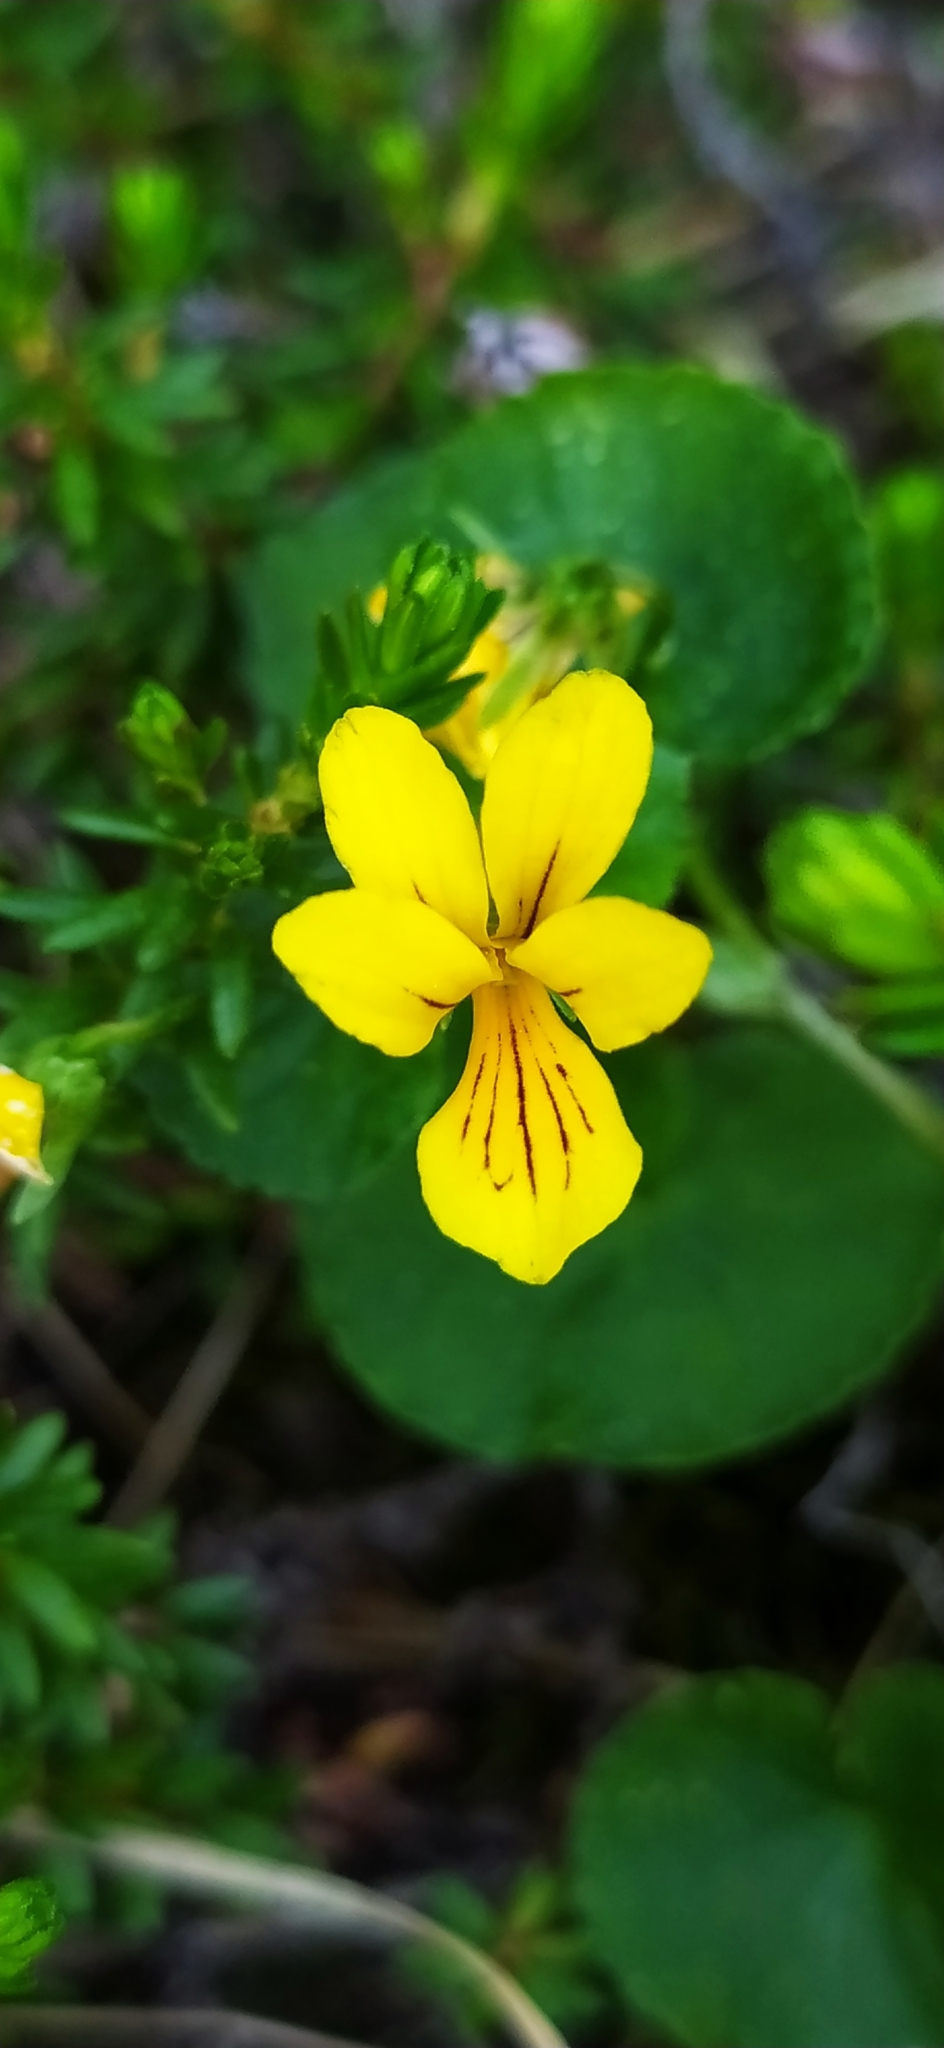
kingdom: Plantae
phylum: Tracheophyta
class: Magnoliopsida
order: Malpighiales
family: Violaceae
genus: Viola
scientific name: Viola biflora
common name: Alpine yellow violet
